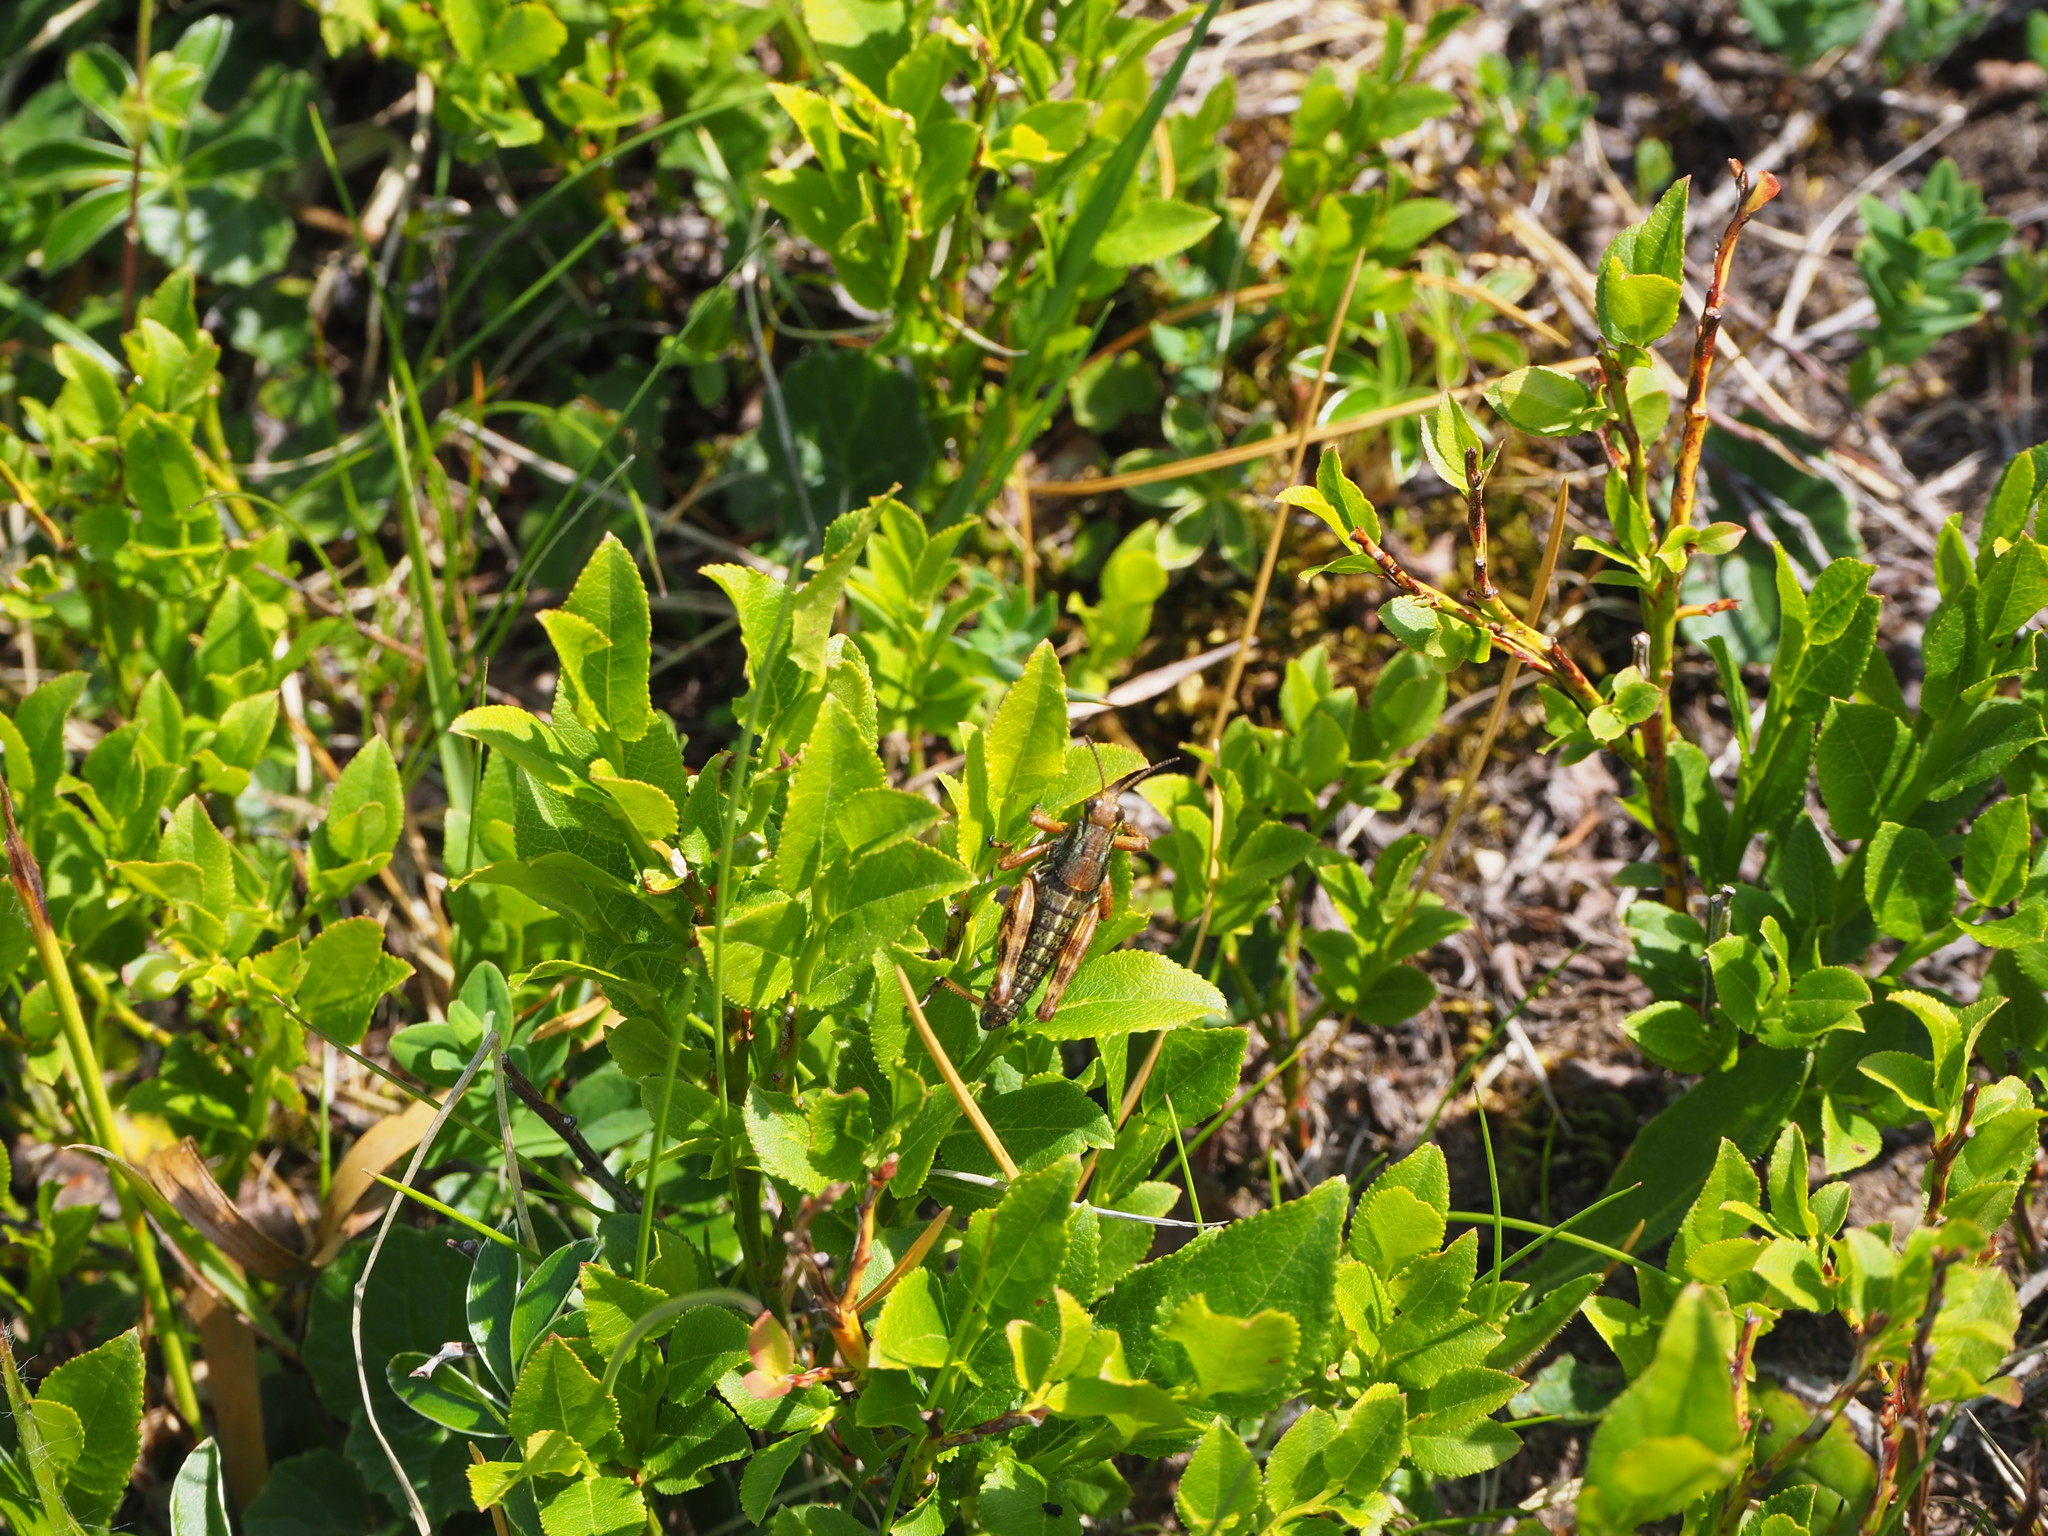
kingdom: Animalia
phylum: Arthropoda
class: Insecta
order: Orthoptera
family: Acrididae
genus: Podisma
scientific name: Podisma emiliae
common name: Emilia mountain grasshopper
